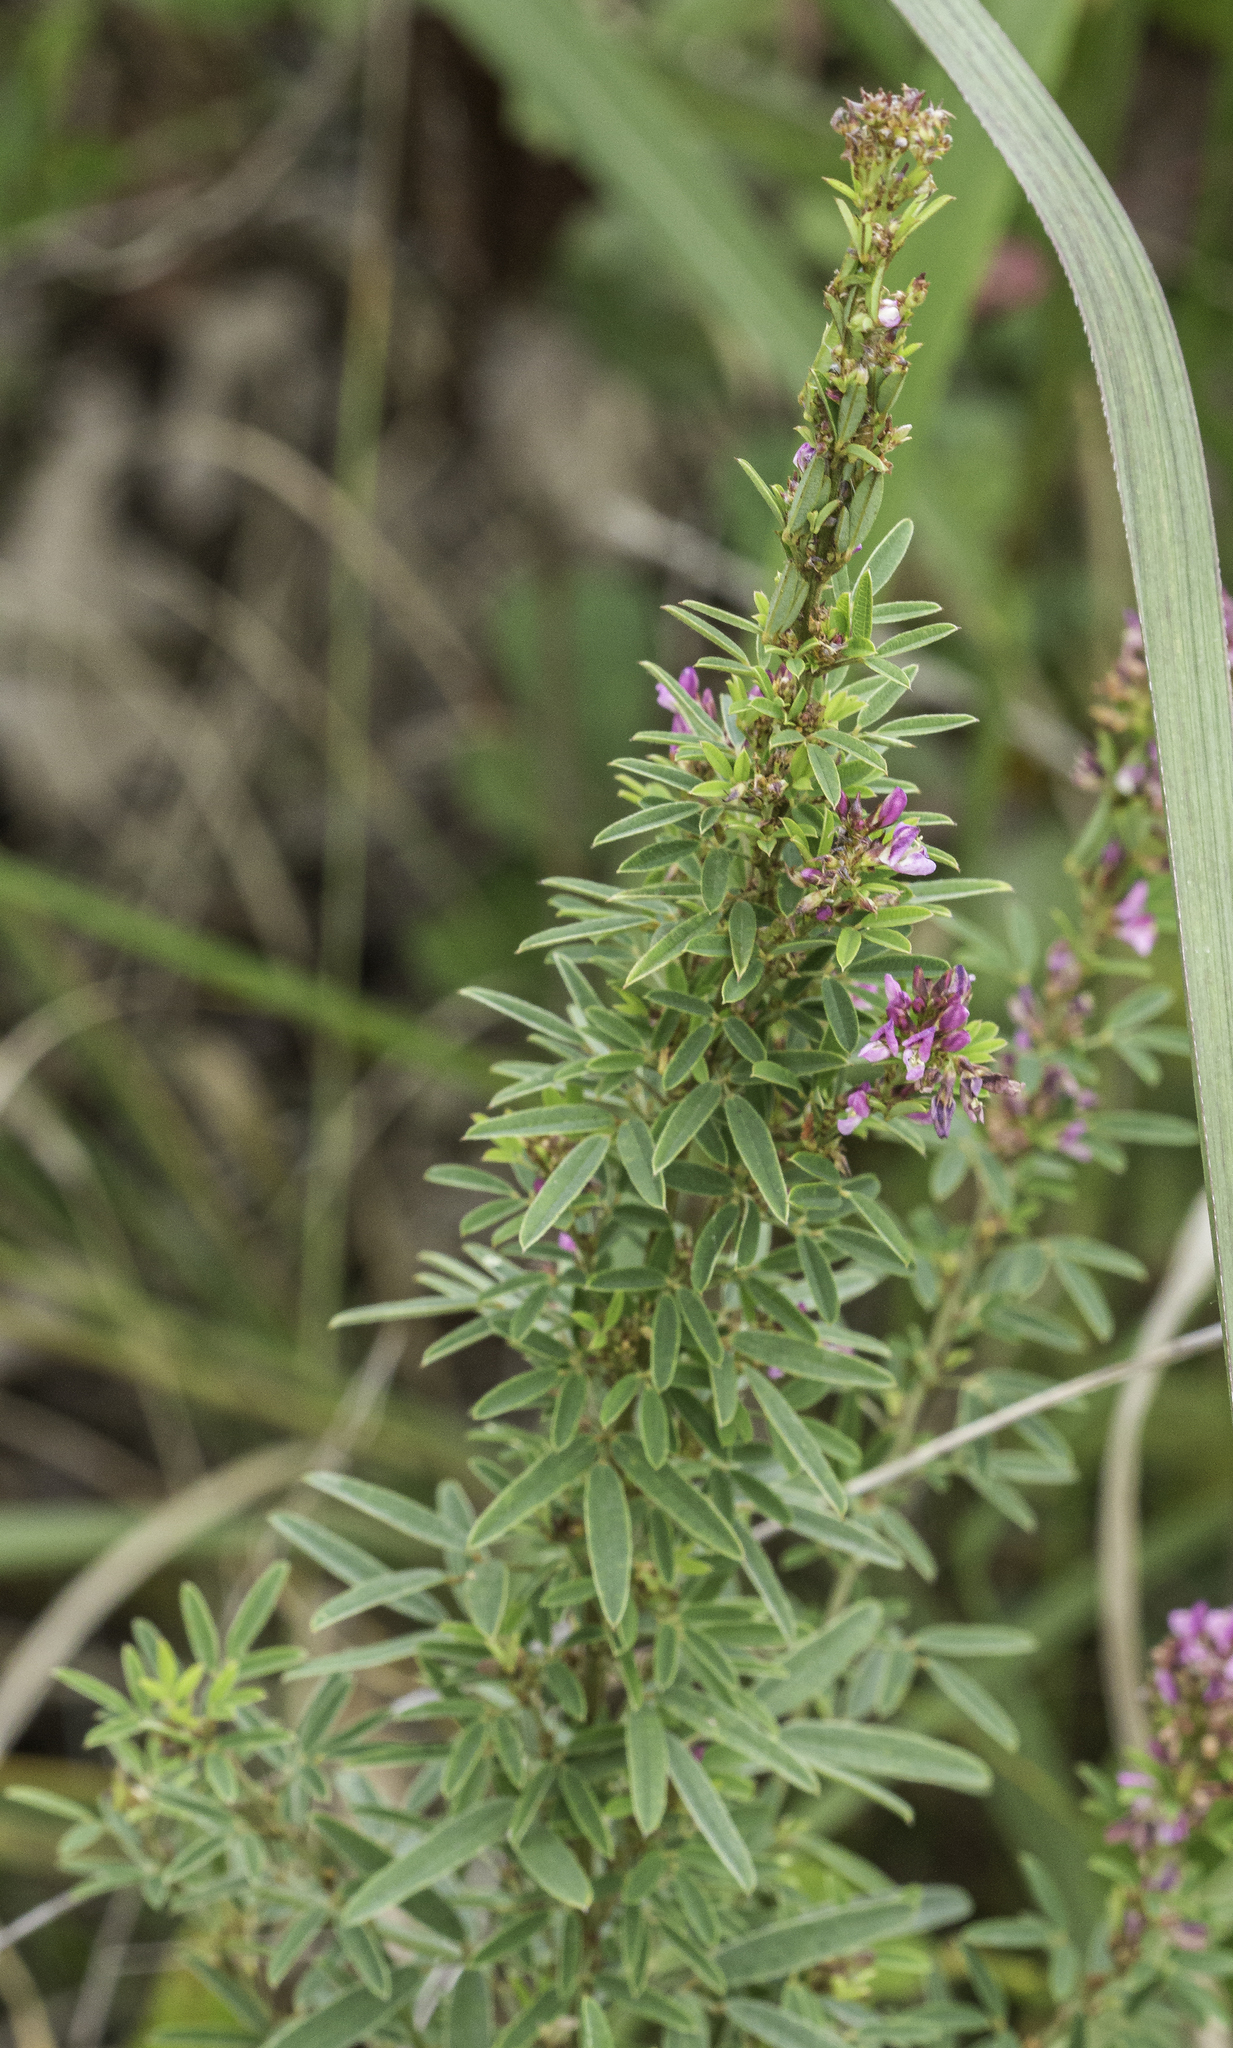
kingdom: Plantae
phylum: Tracheophyta
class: Magnoliopsida
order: Fabales
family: Fabaceae
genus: Lespedeza
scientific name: Lespedeza virginica
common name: Slender bush-clover
